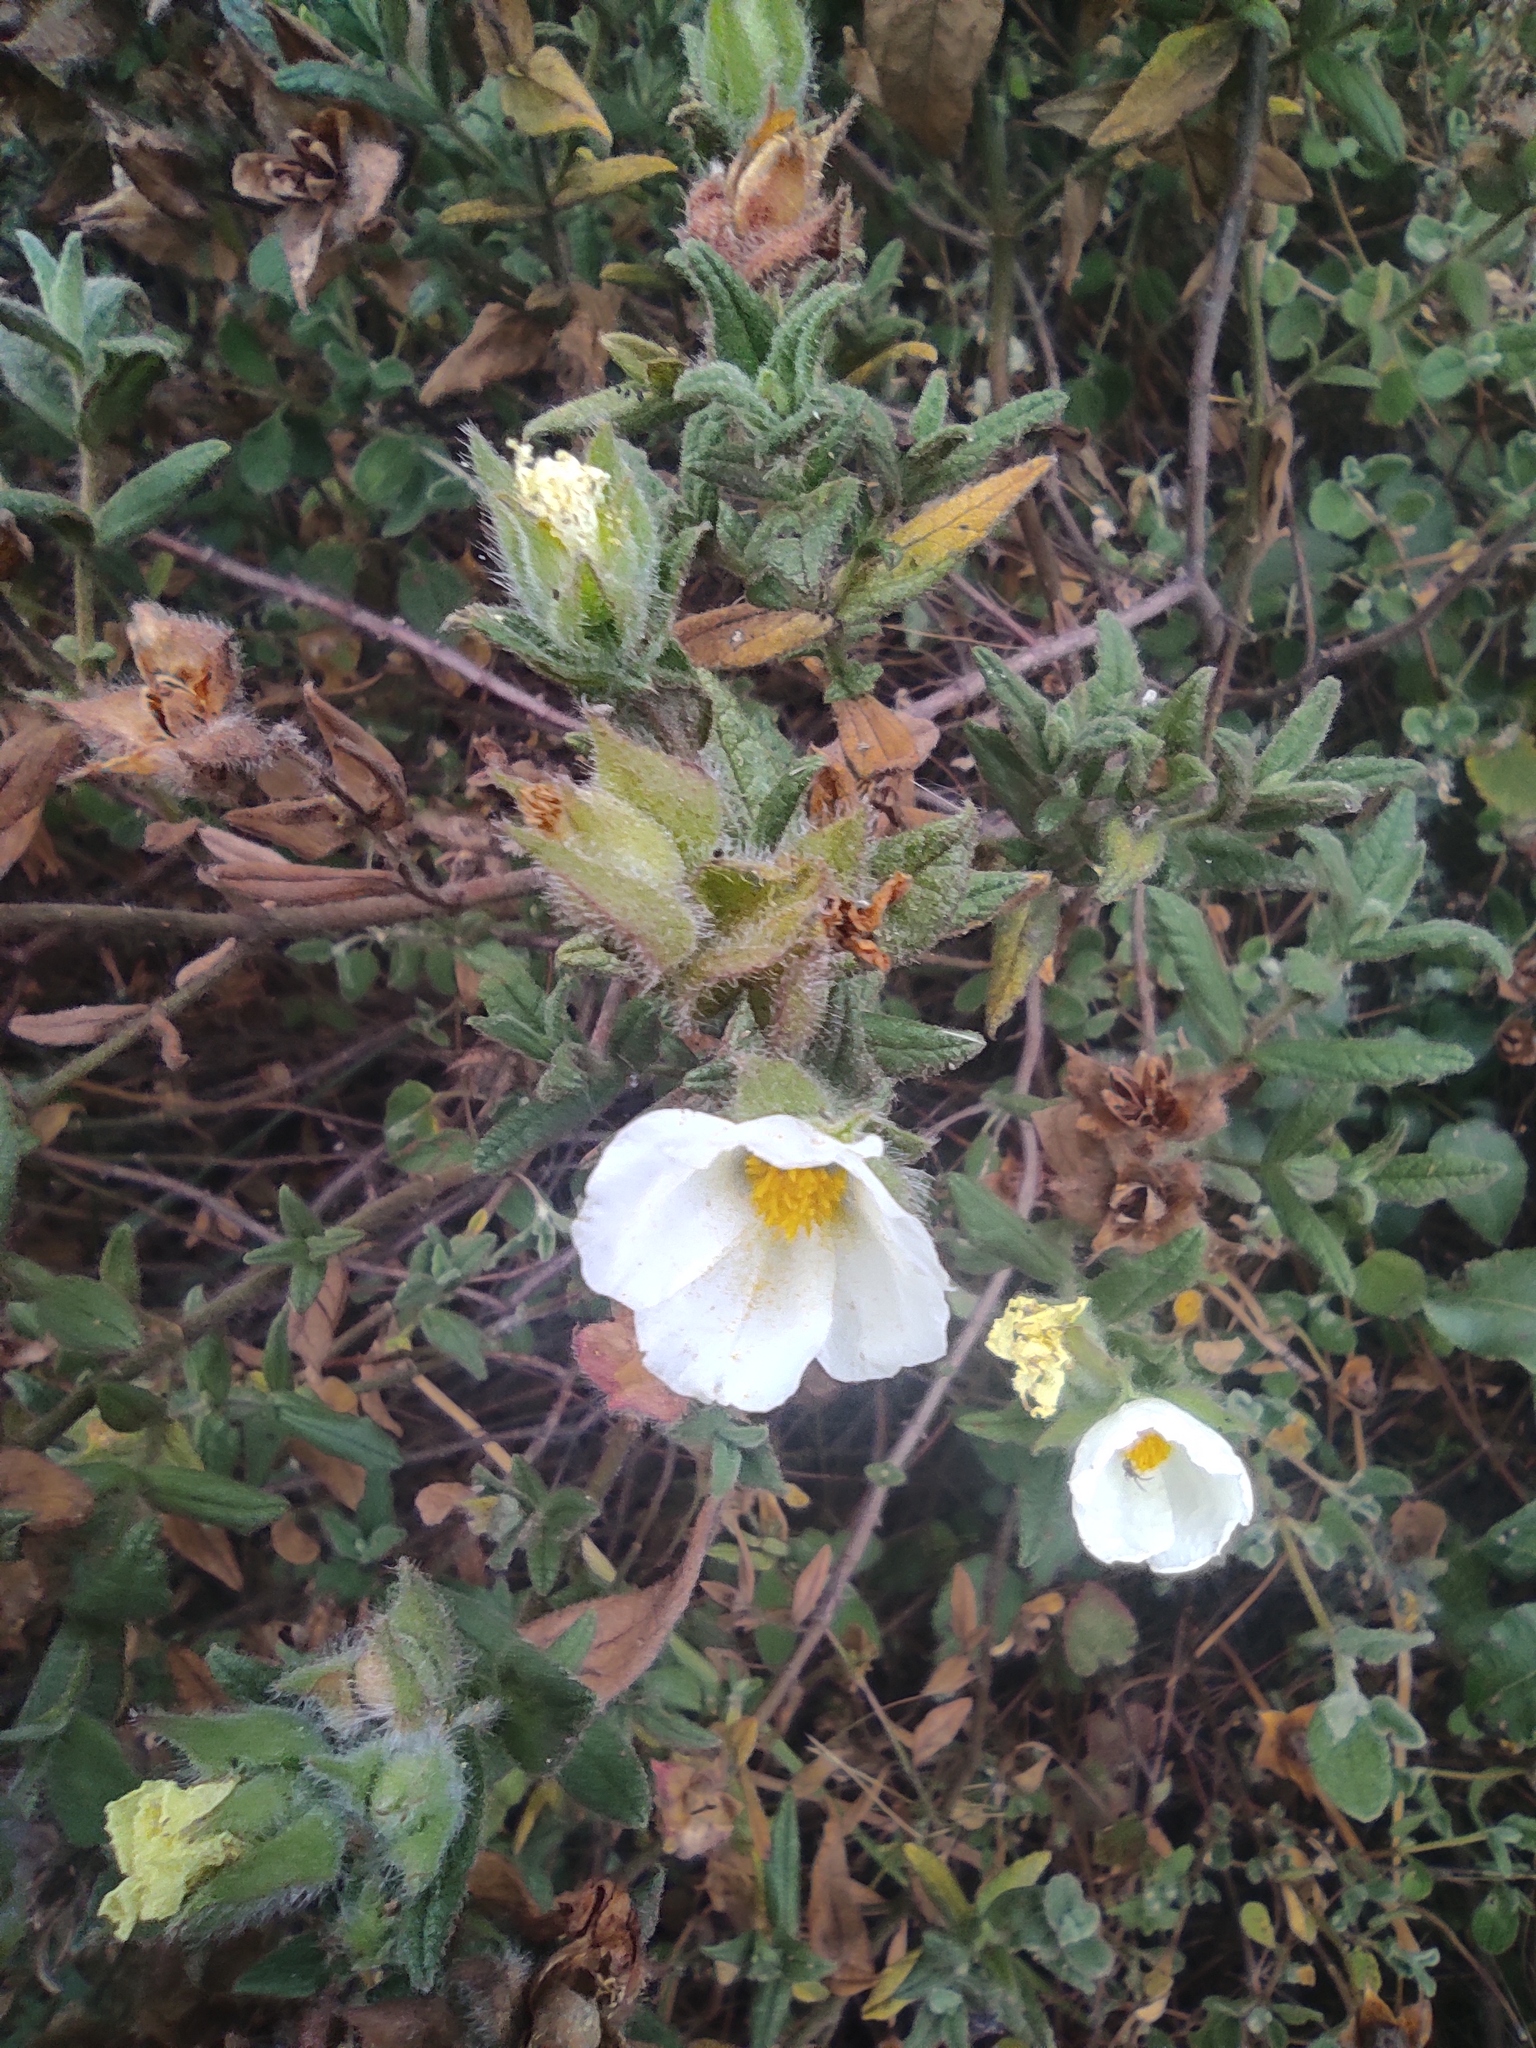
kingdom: Plantae
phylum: Tracheophyta
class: Magnoliopsida
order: Malvales
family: Cistaceae
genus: Cistus
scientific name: Cistus inflatus
